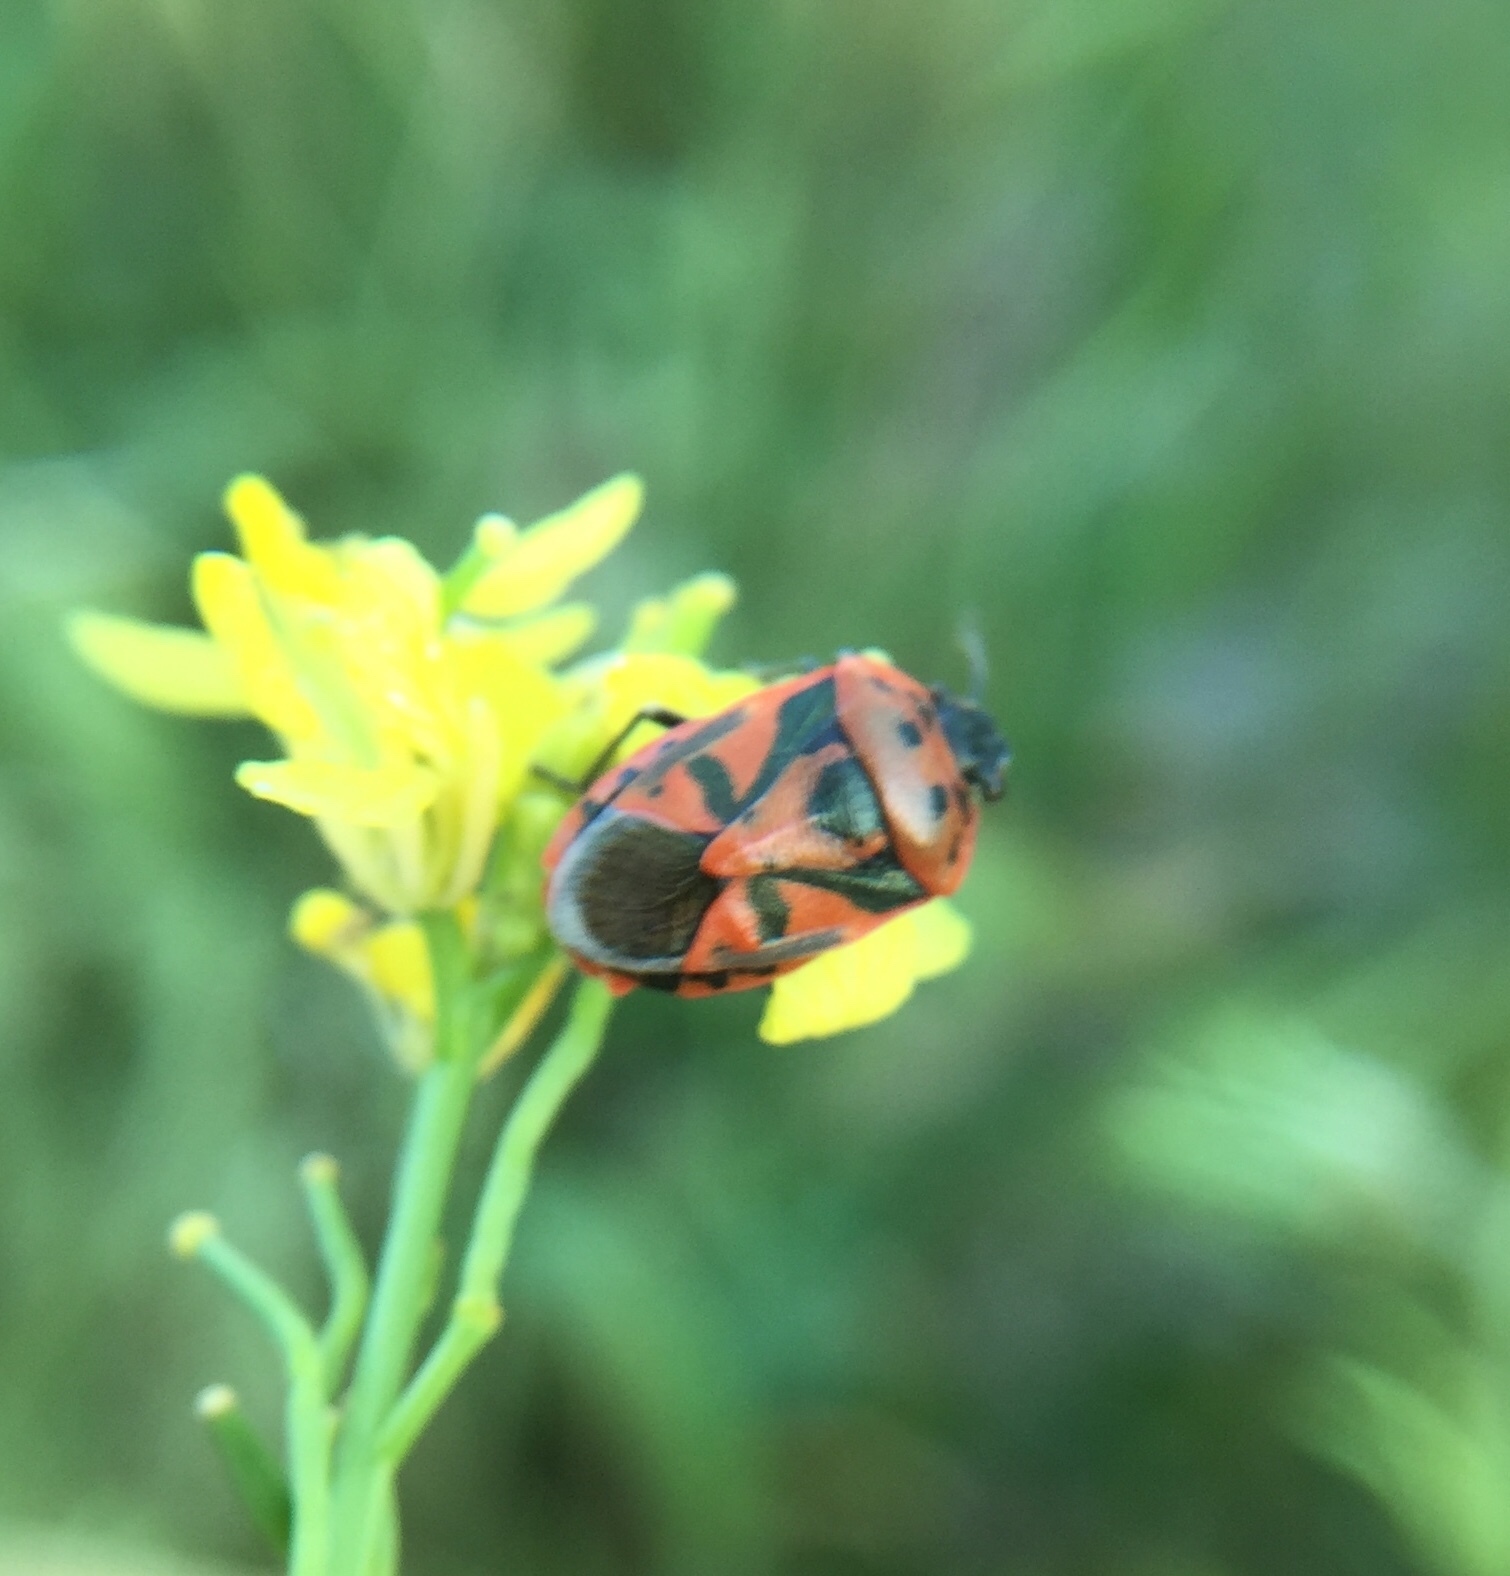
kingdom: Animalia
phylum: Arthropoda
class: Insecta
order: Hemiptera
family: Pentatomidae
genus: Eurydema
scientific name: Eurydema ornata
